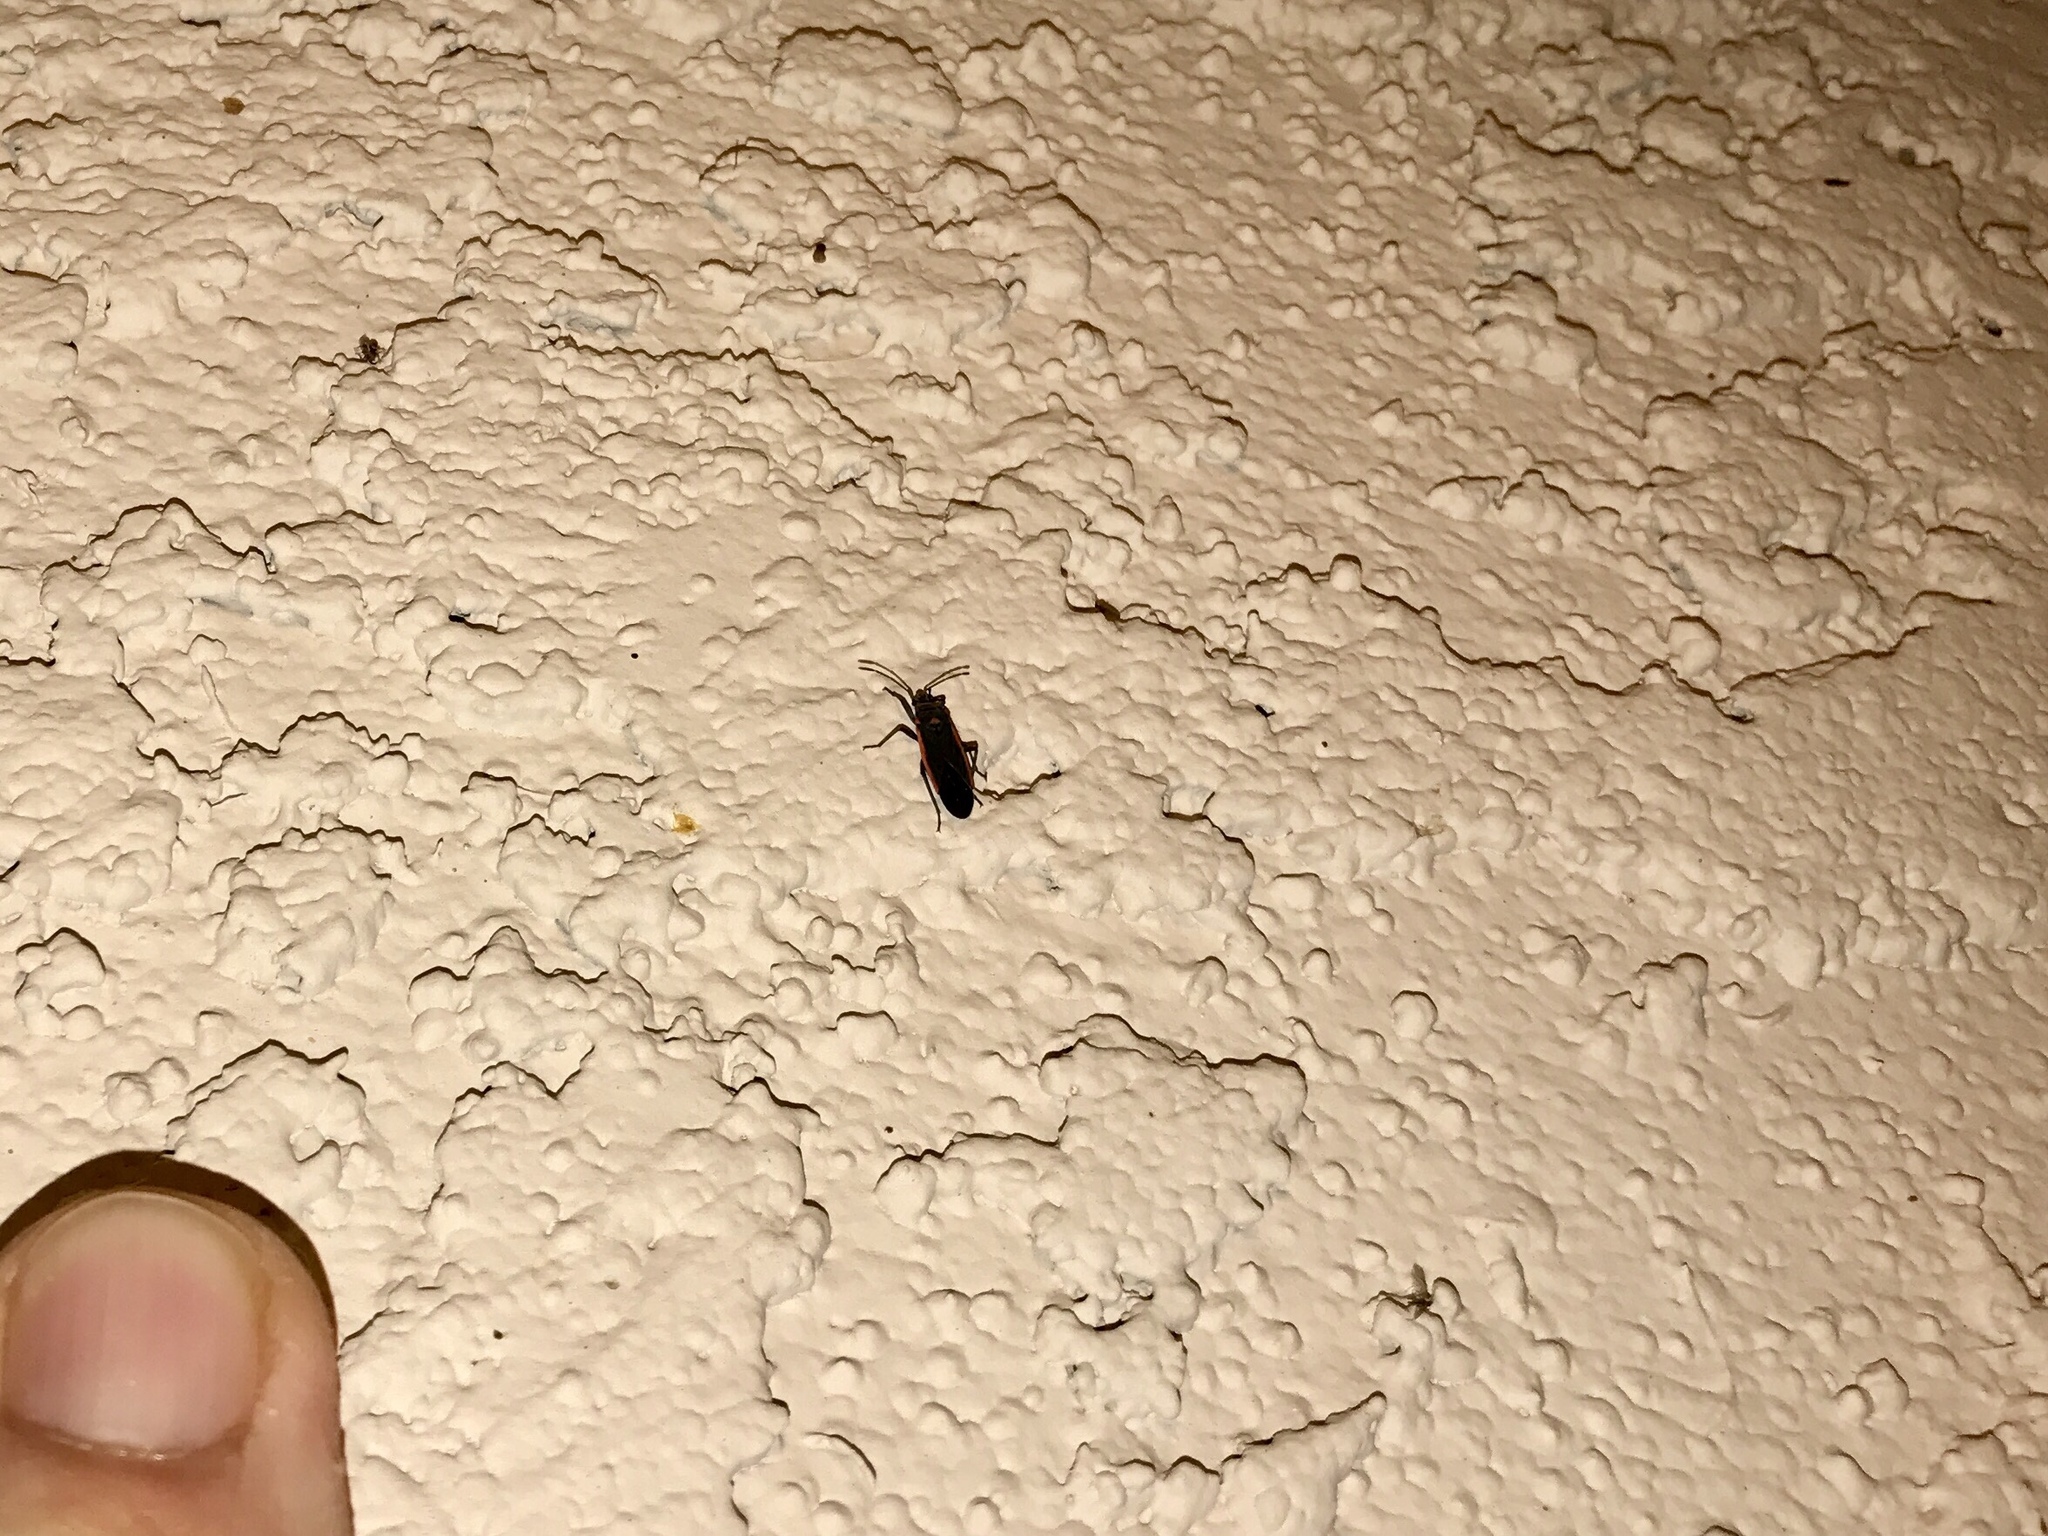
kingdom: Animalia
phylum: Arthropoda
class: Insecta
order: Hemiptera
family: Lygaeidae
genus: Melacoryphus
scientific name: Melacoryphus lateralis
